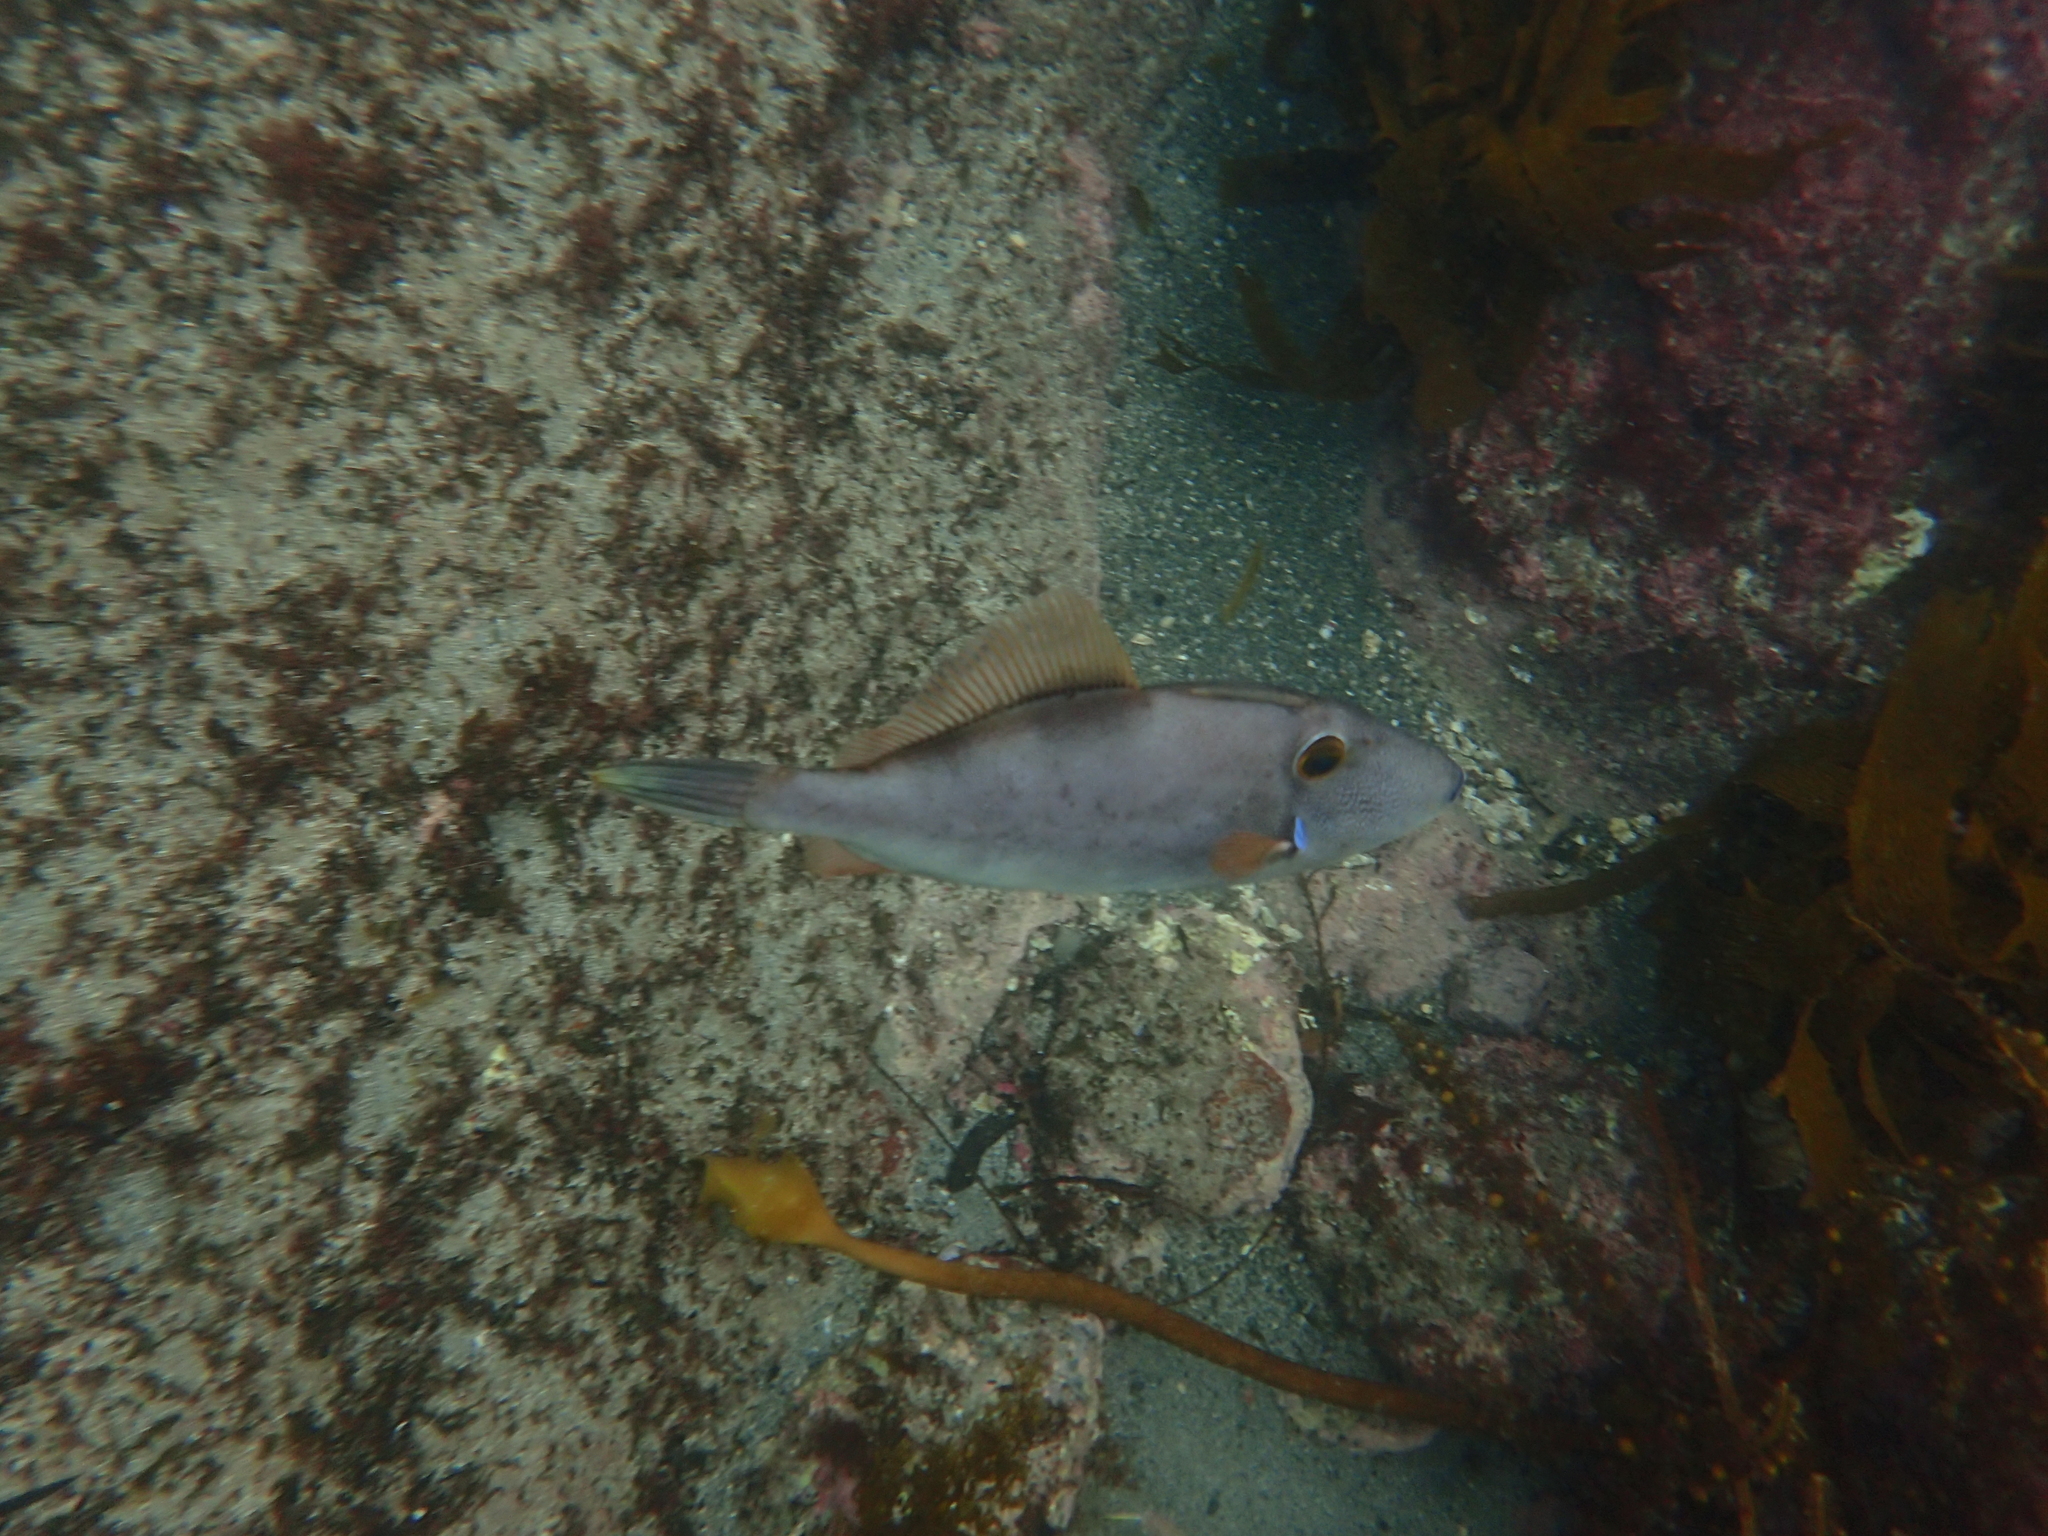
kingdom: Animalia
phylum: Chordata
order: Tetraodontiformes
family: Monacanthidae
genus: Meuschenia
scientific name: Meuschenia scaber
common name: Cosmopolitan leatherjacket
